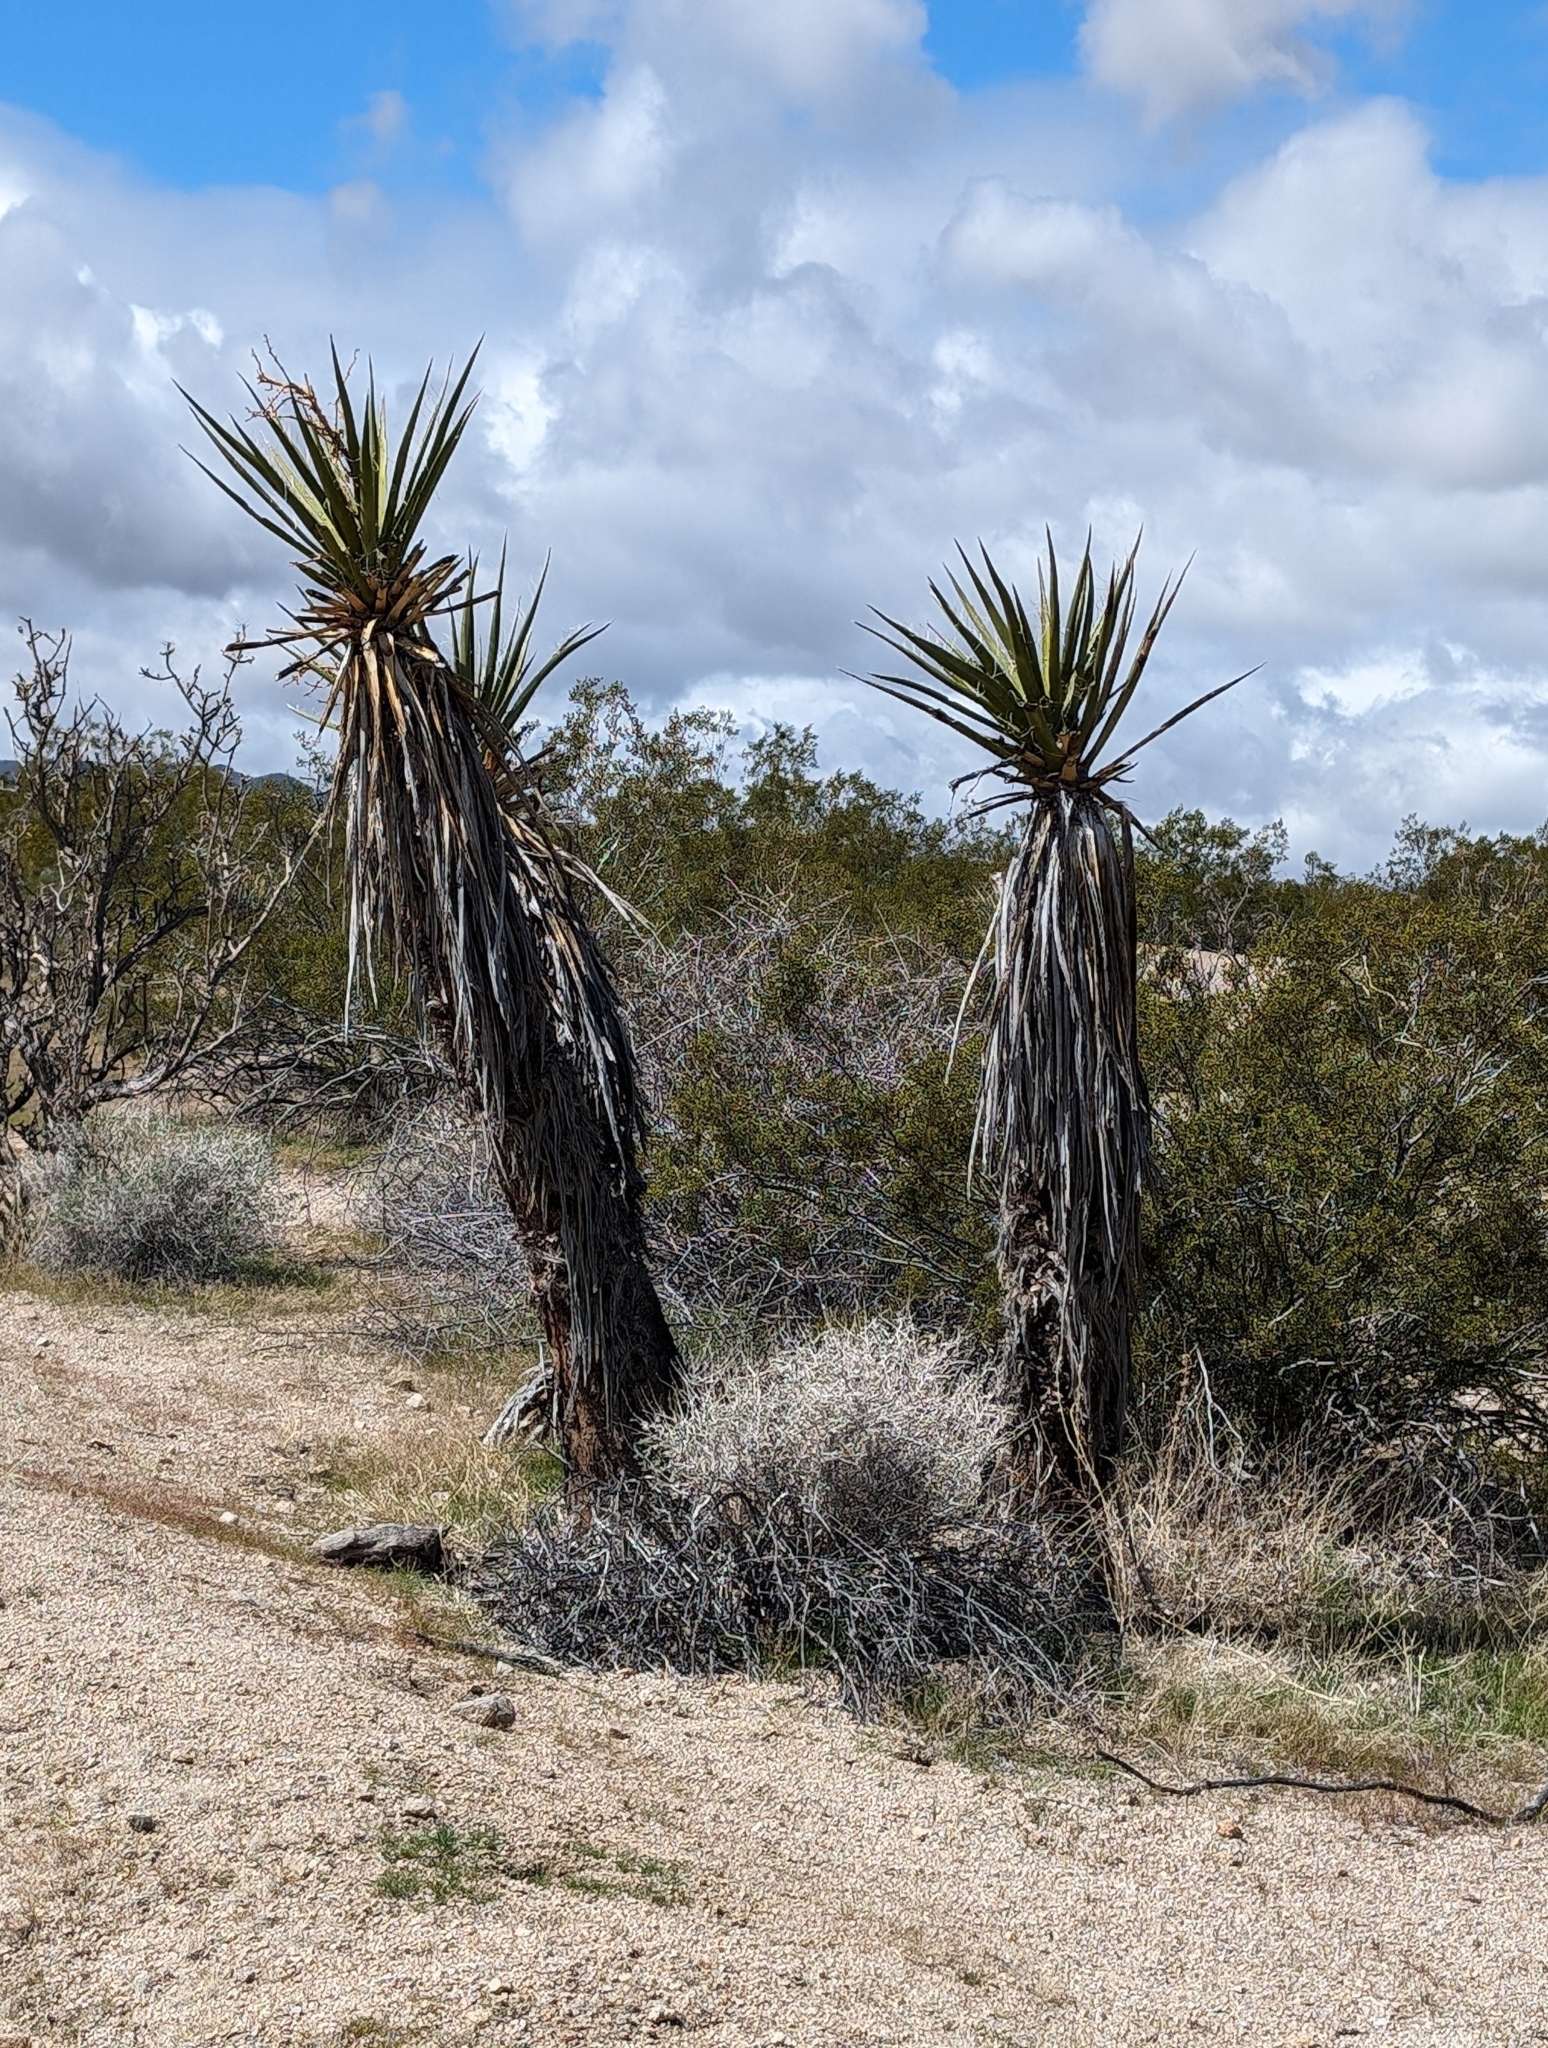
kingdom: Plantae
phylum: Tracheophyta
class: Liliopsida
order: Asparagales
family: Asparagaceae
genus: Yucca
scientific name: Yucca schidigera
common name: Mojave yucca
